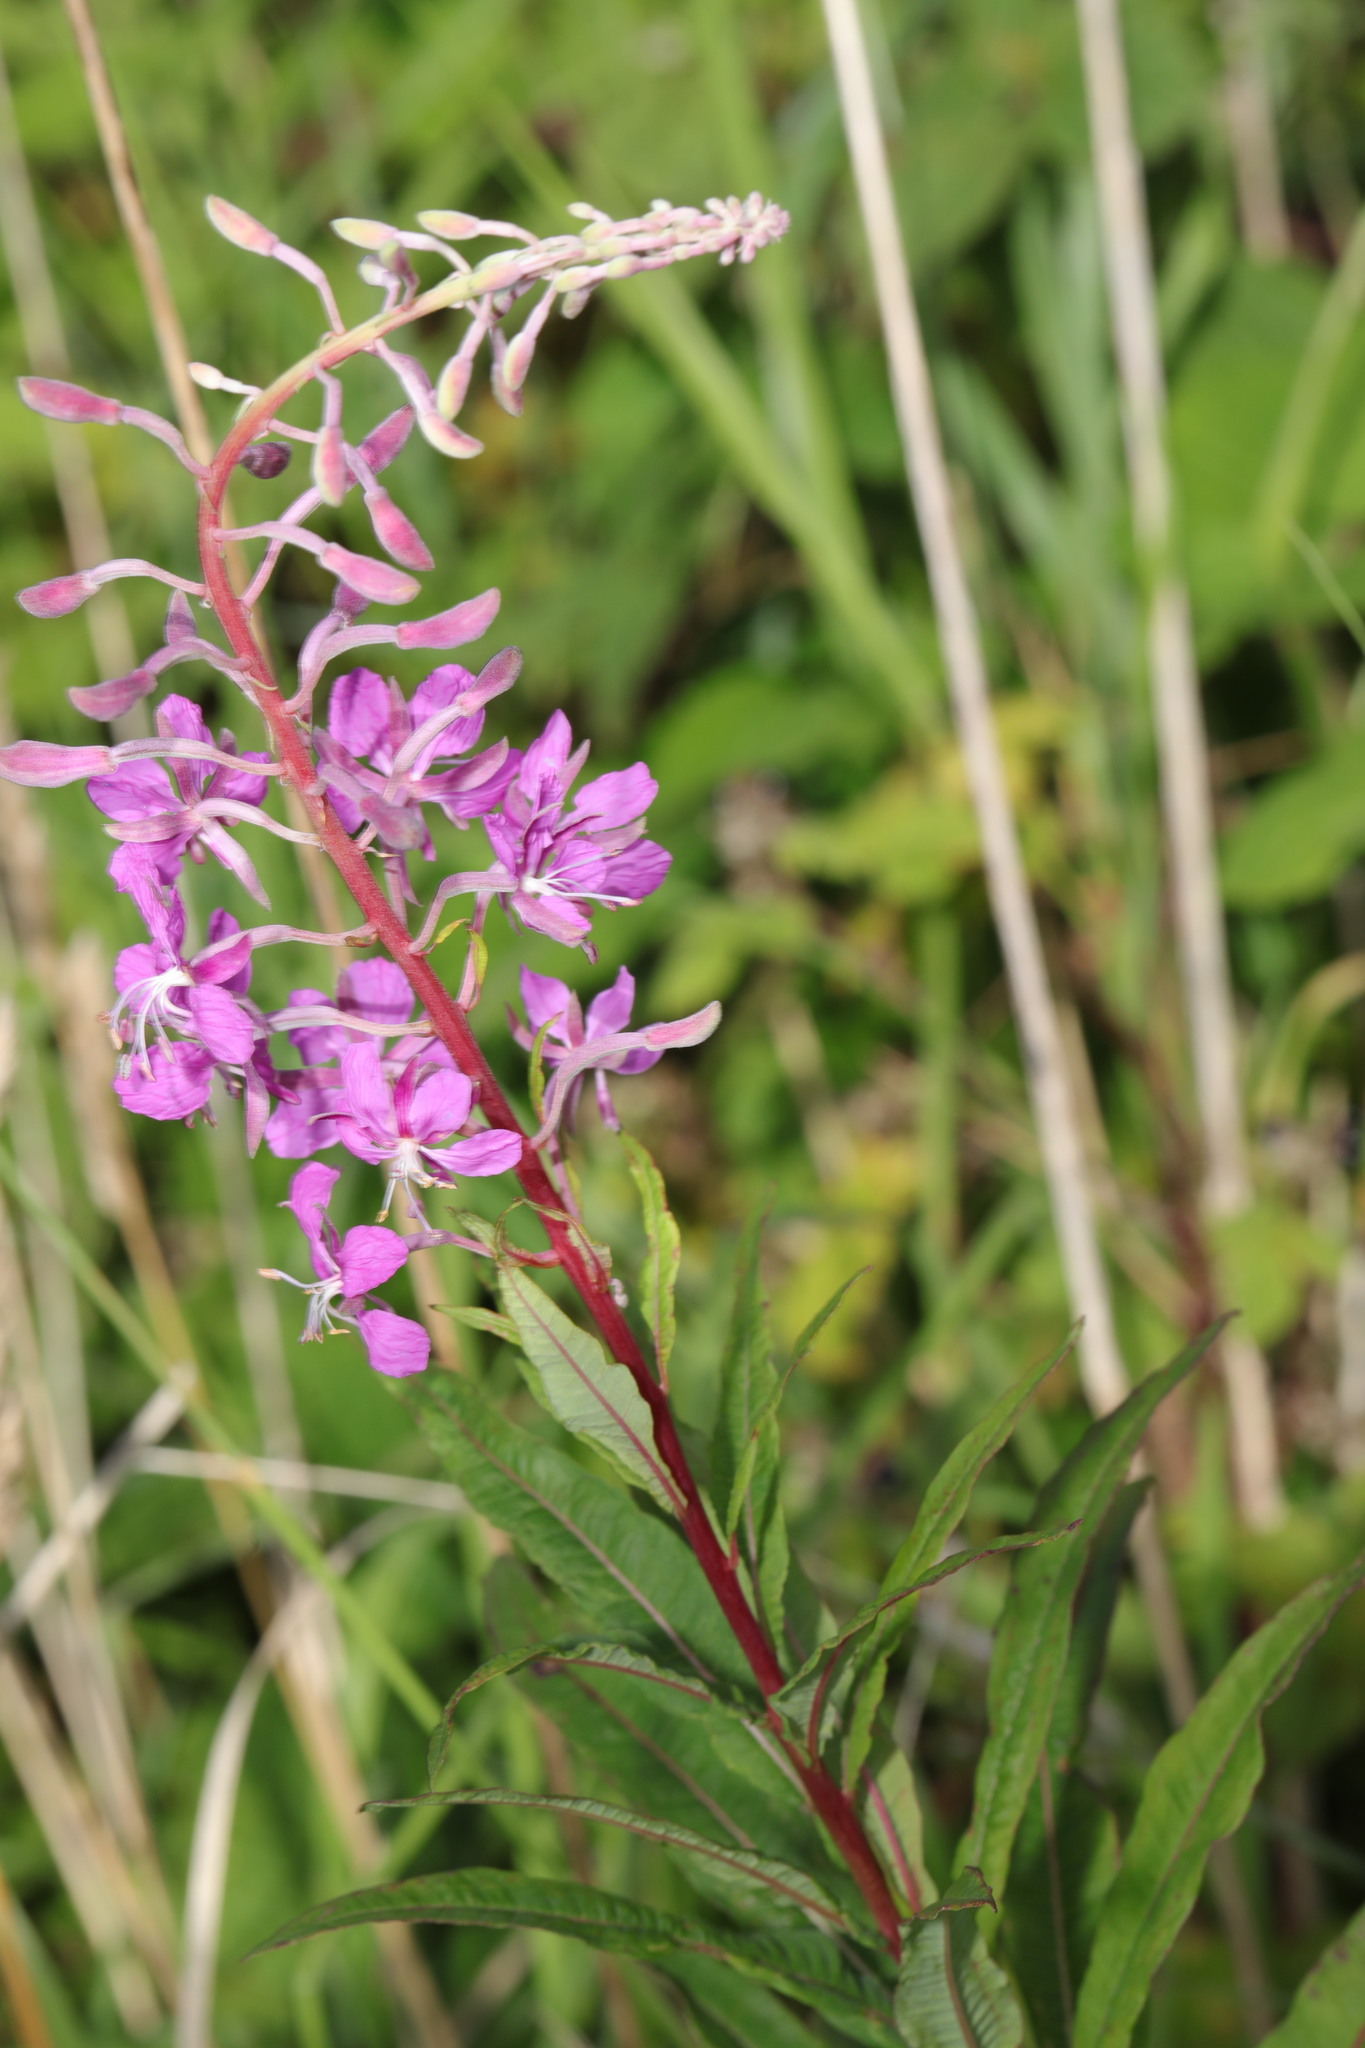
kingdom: Plantae
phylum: Tracheophyta
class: Magnoliopsida
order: Myrtales
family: Onagraceae
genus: Chamaenerion
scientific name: Chamaenerion angustifolium
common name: Fireweed
